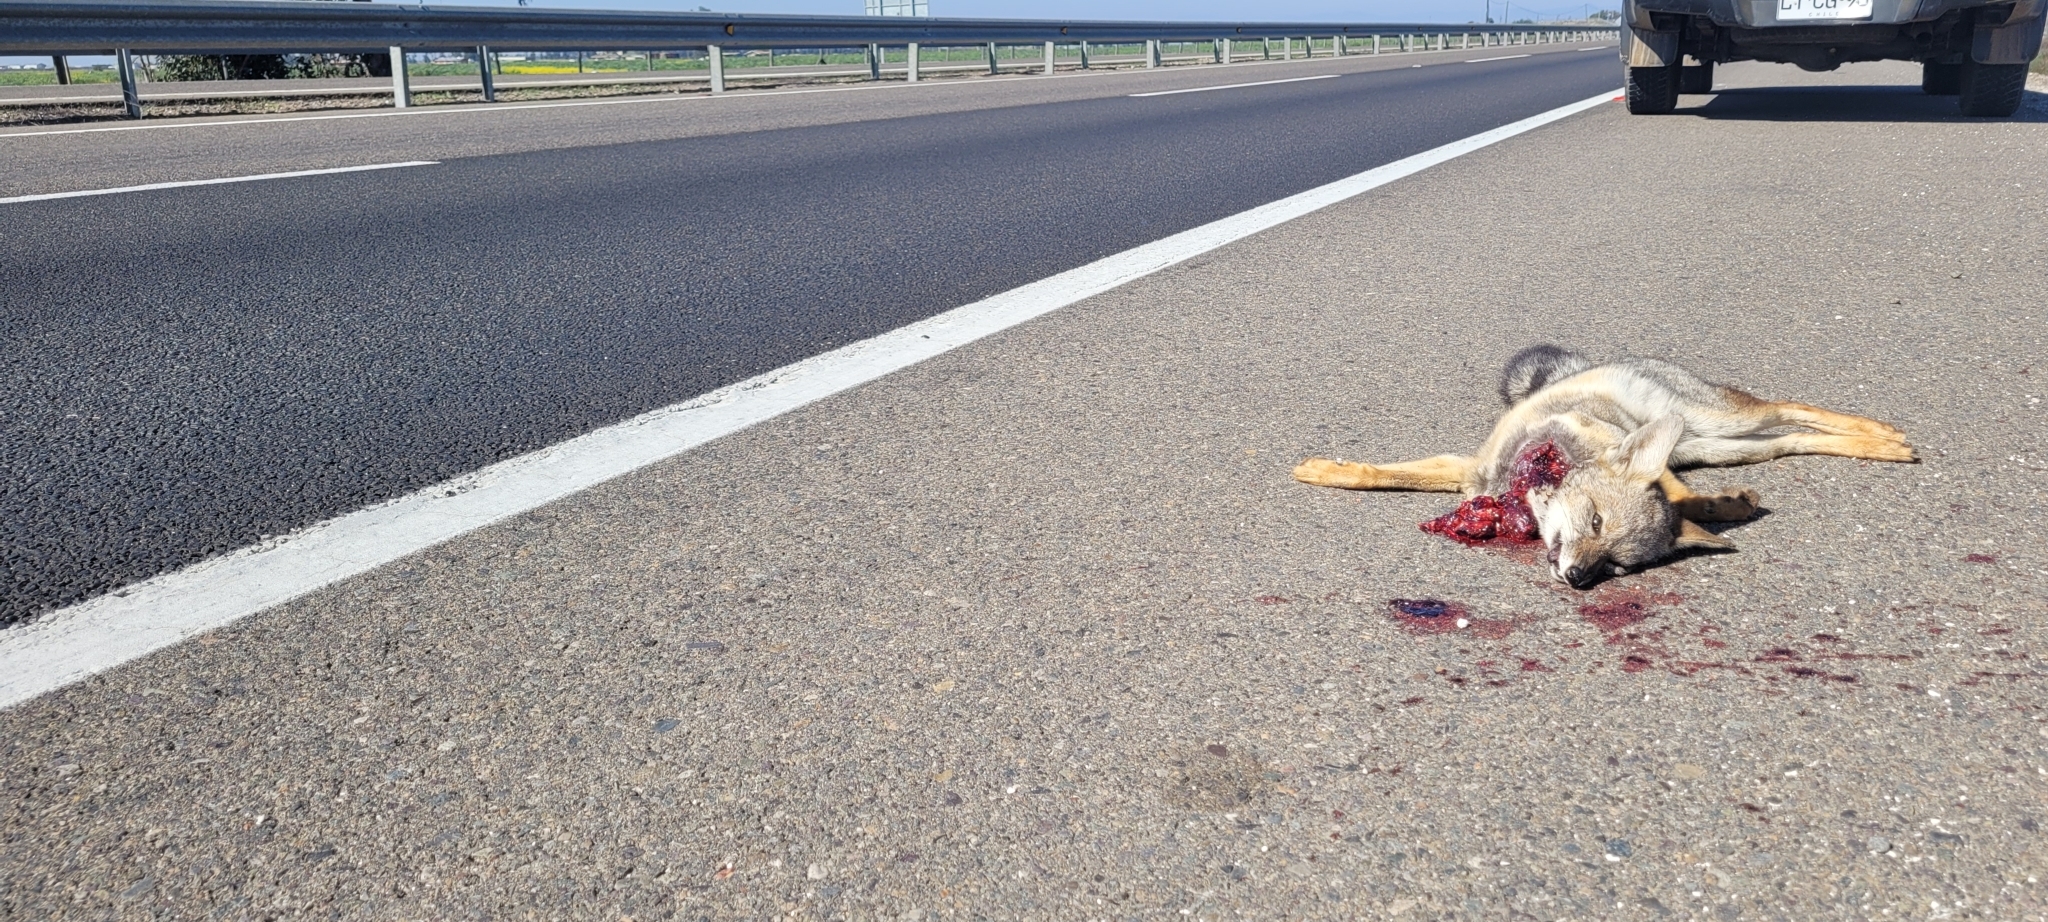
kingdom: Animalia
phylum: Chordata
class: Mammalia
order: Carnivora
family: Canidae
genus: Lycalopex
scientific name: Lycalopex gymnocercus
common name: Pampas fox
